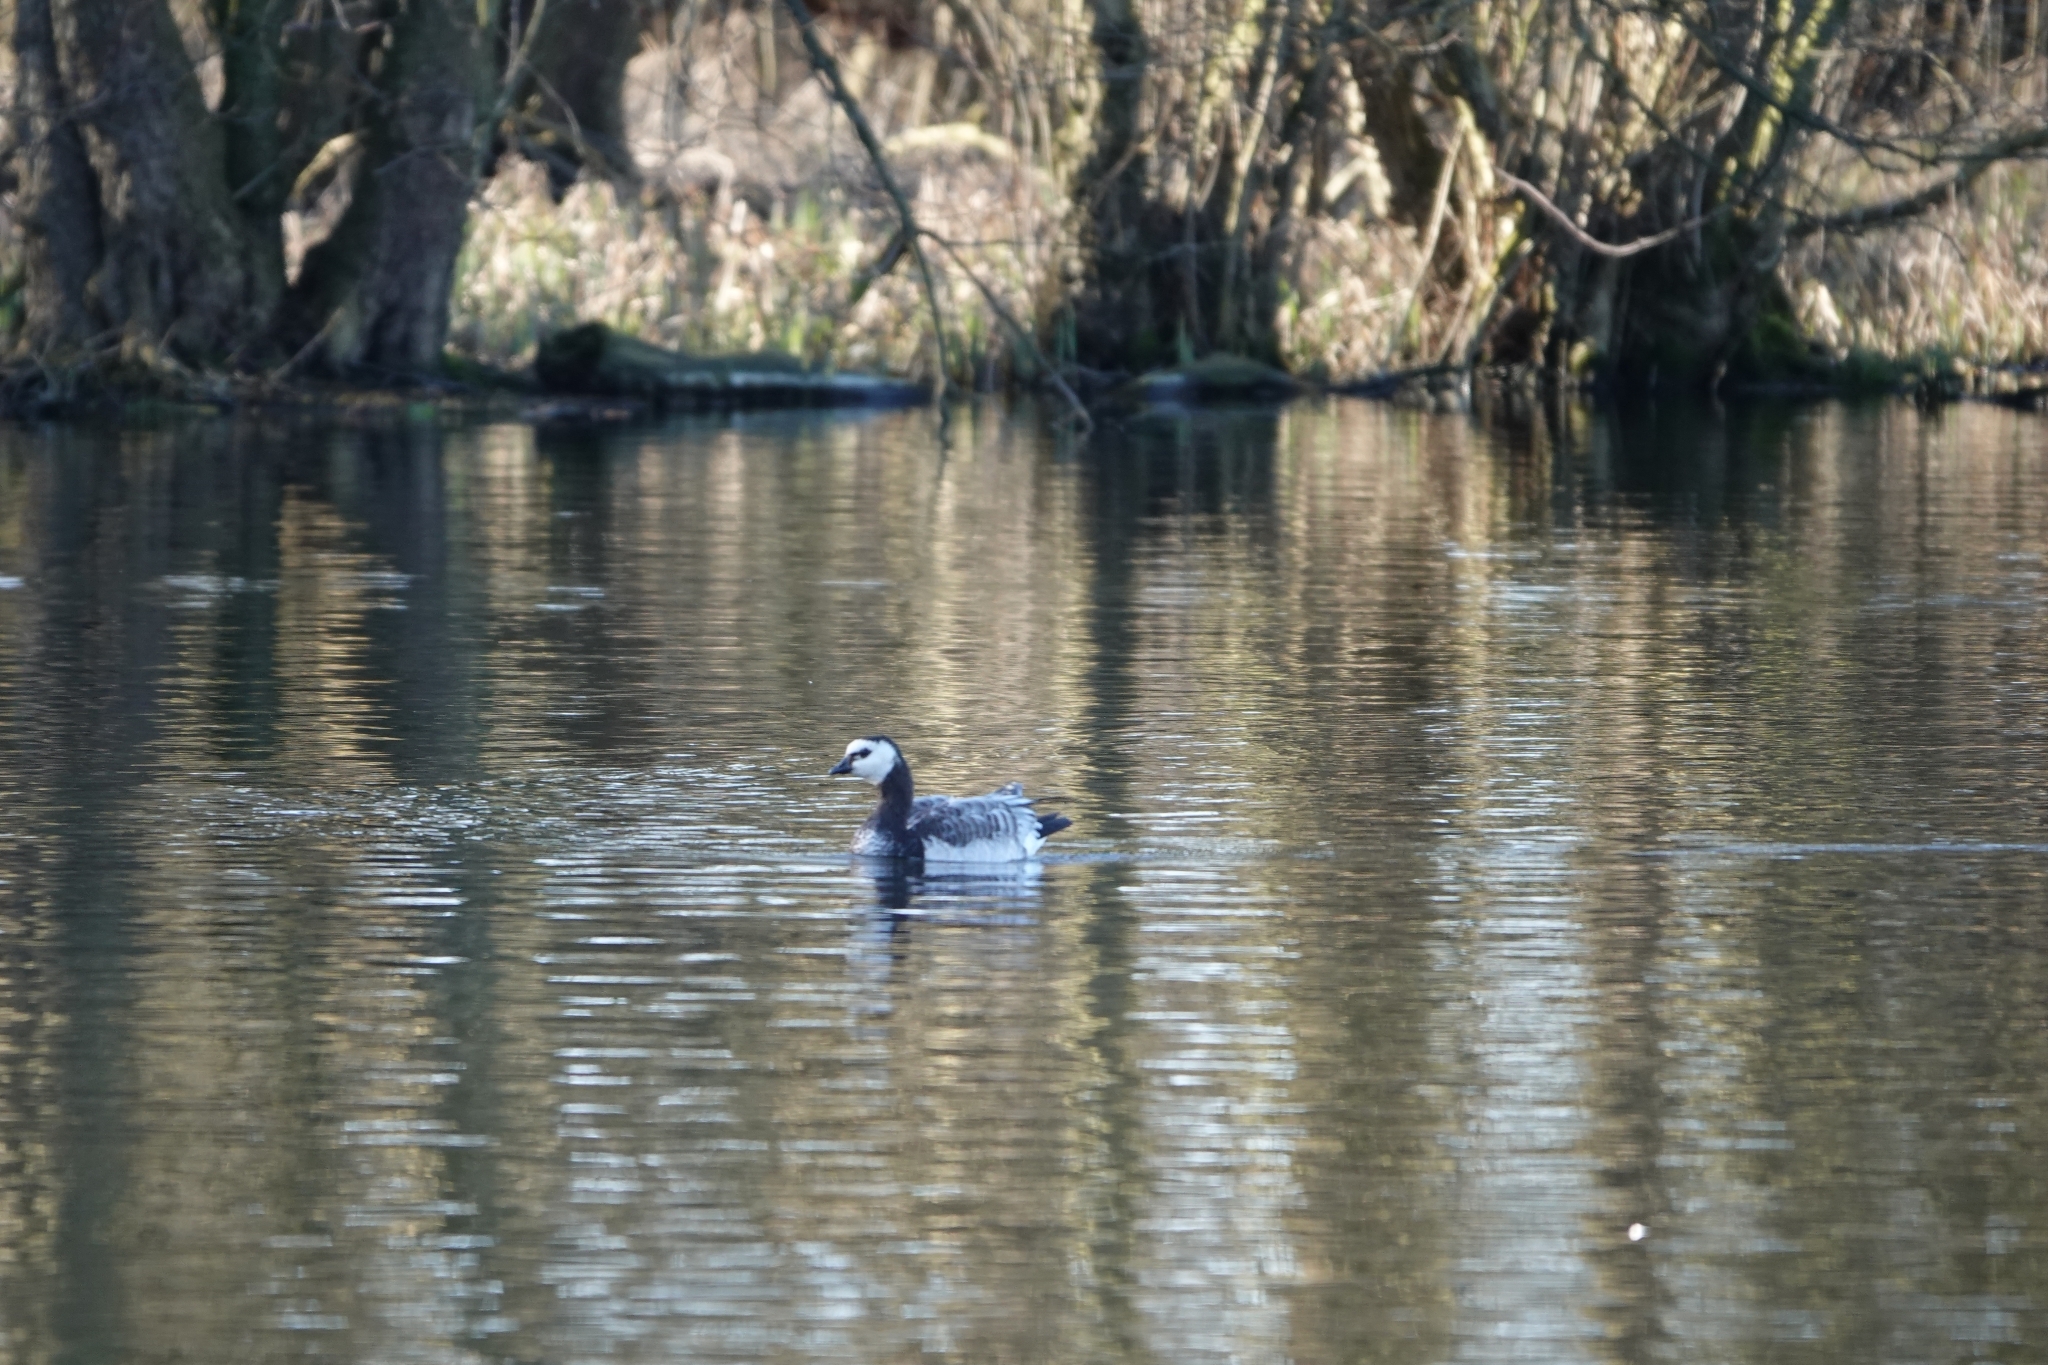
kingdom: Animalia
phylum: Chordata
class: Aves
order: Anseriformes
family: Anatidae
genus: Branta
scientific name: Branta leucopsis
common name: Barnacle goose
